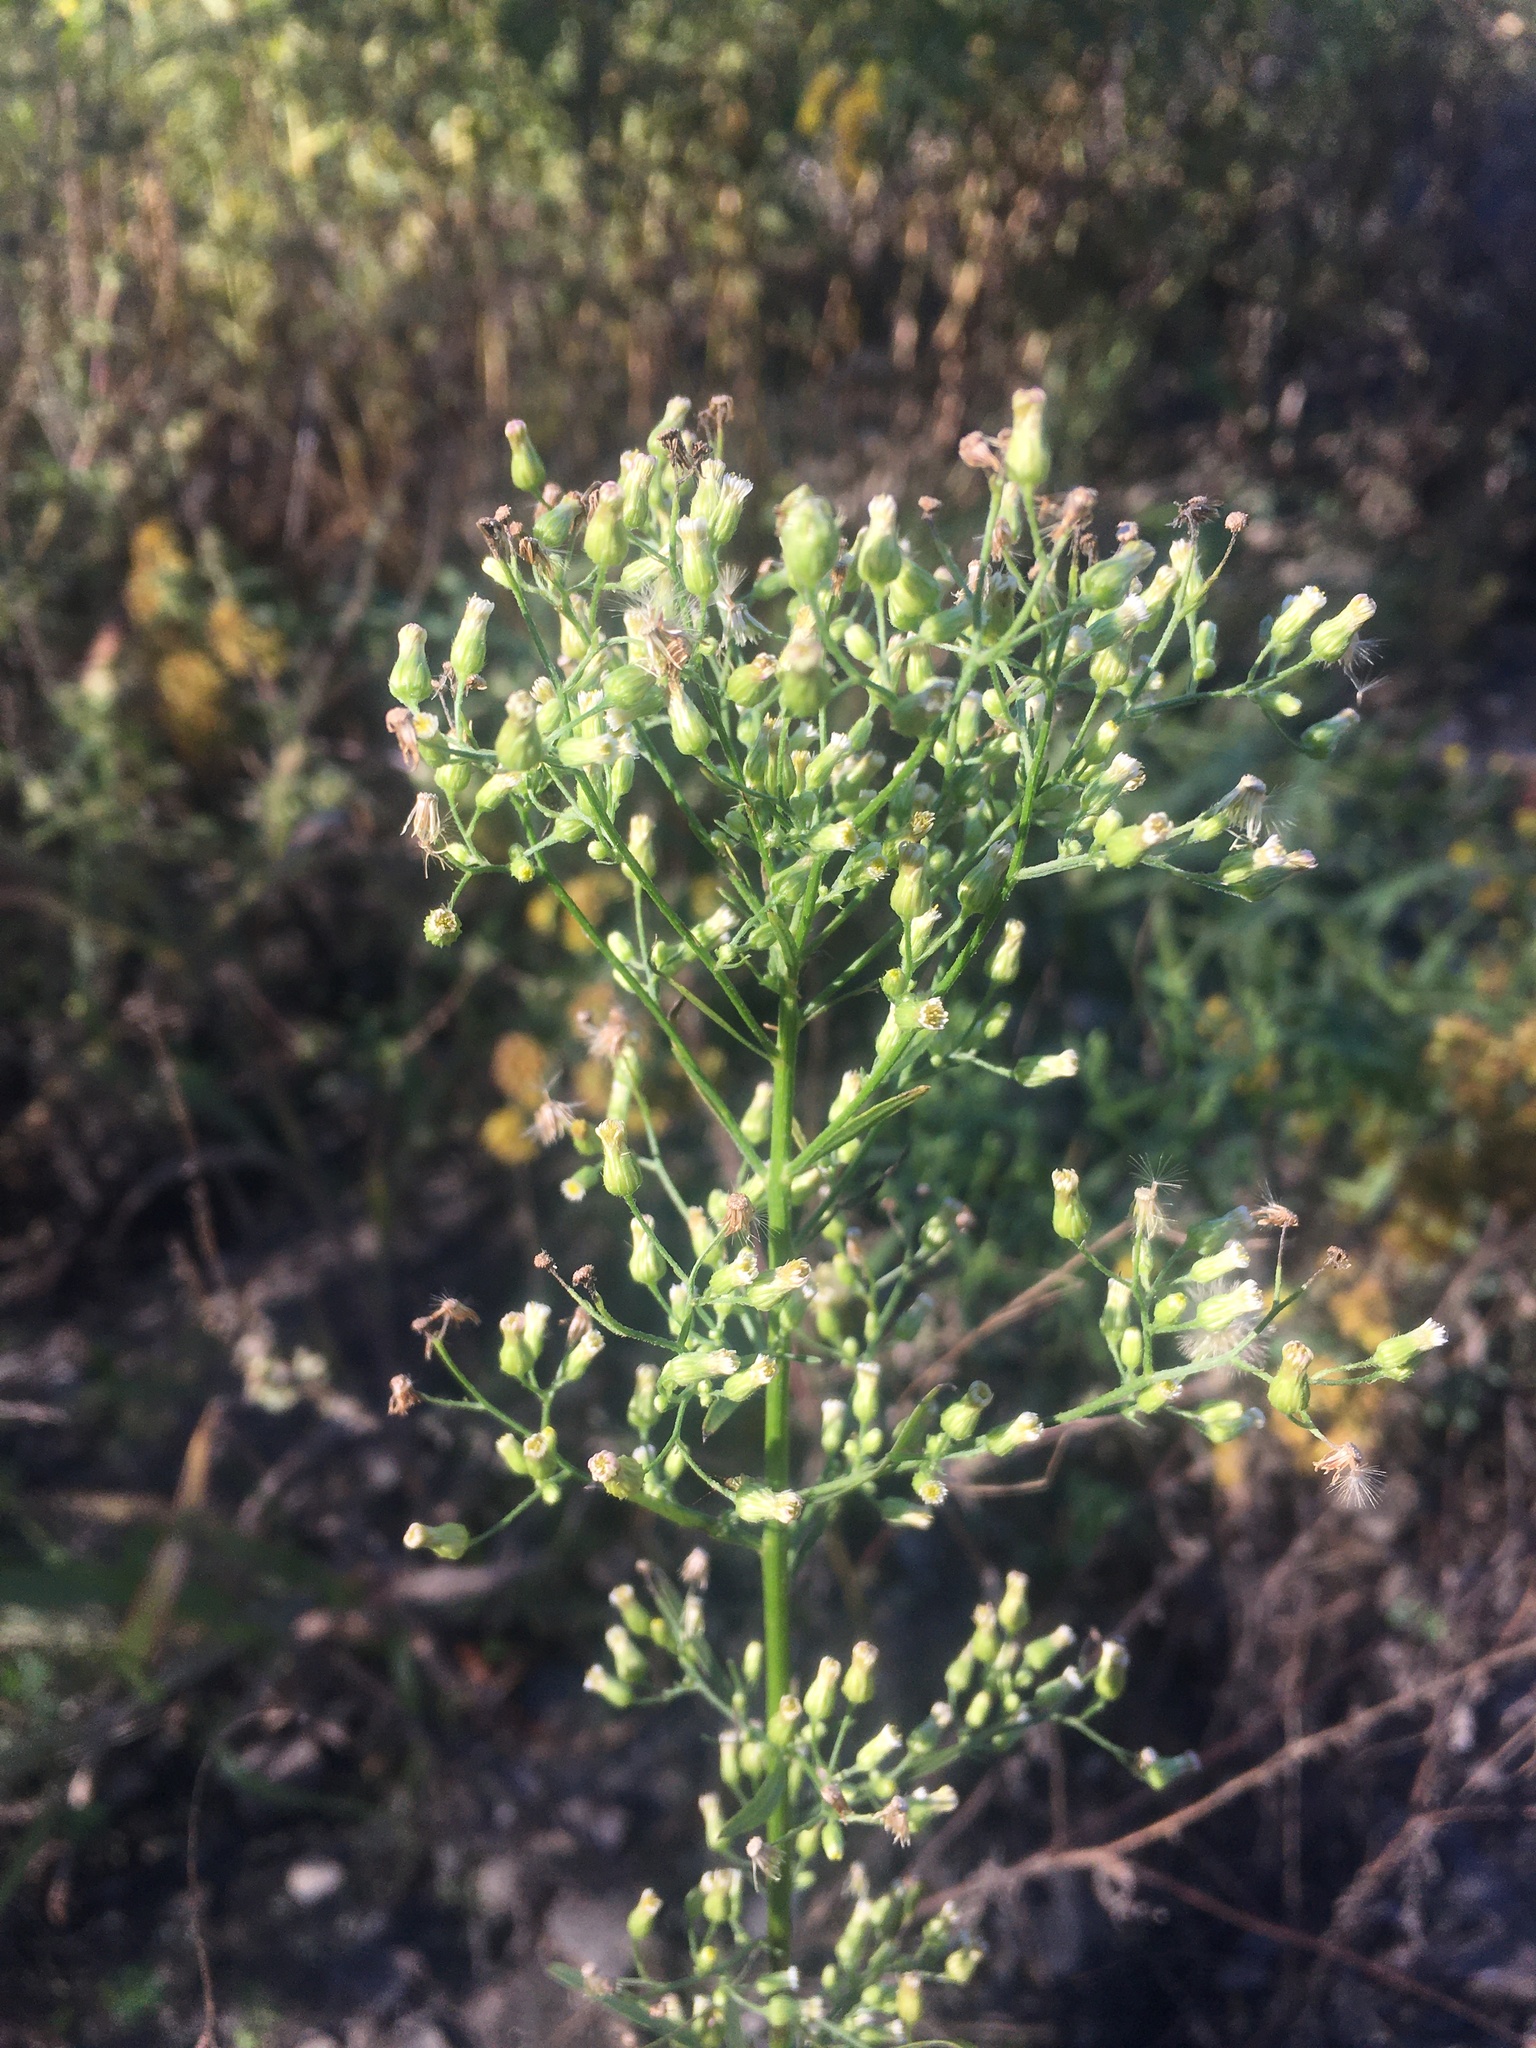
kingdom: Plantae
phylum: Tracheophyta
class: Magnoliopsida
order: Asterales
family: Asteraceae
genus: Erigeron
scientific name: Erigeron canadensis
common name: Canadian fleabane
